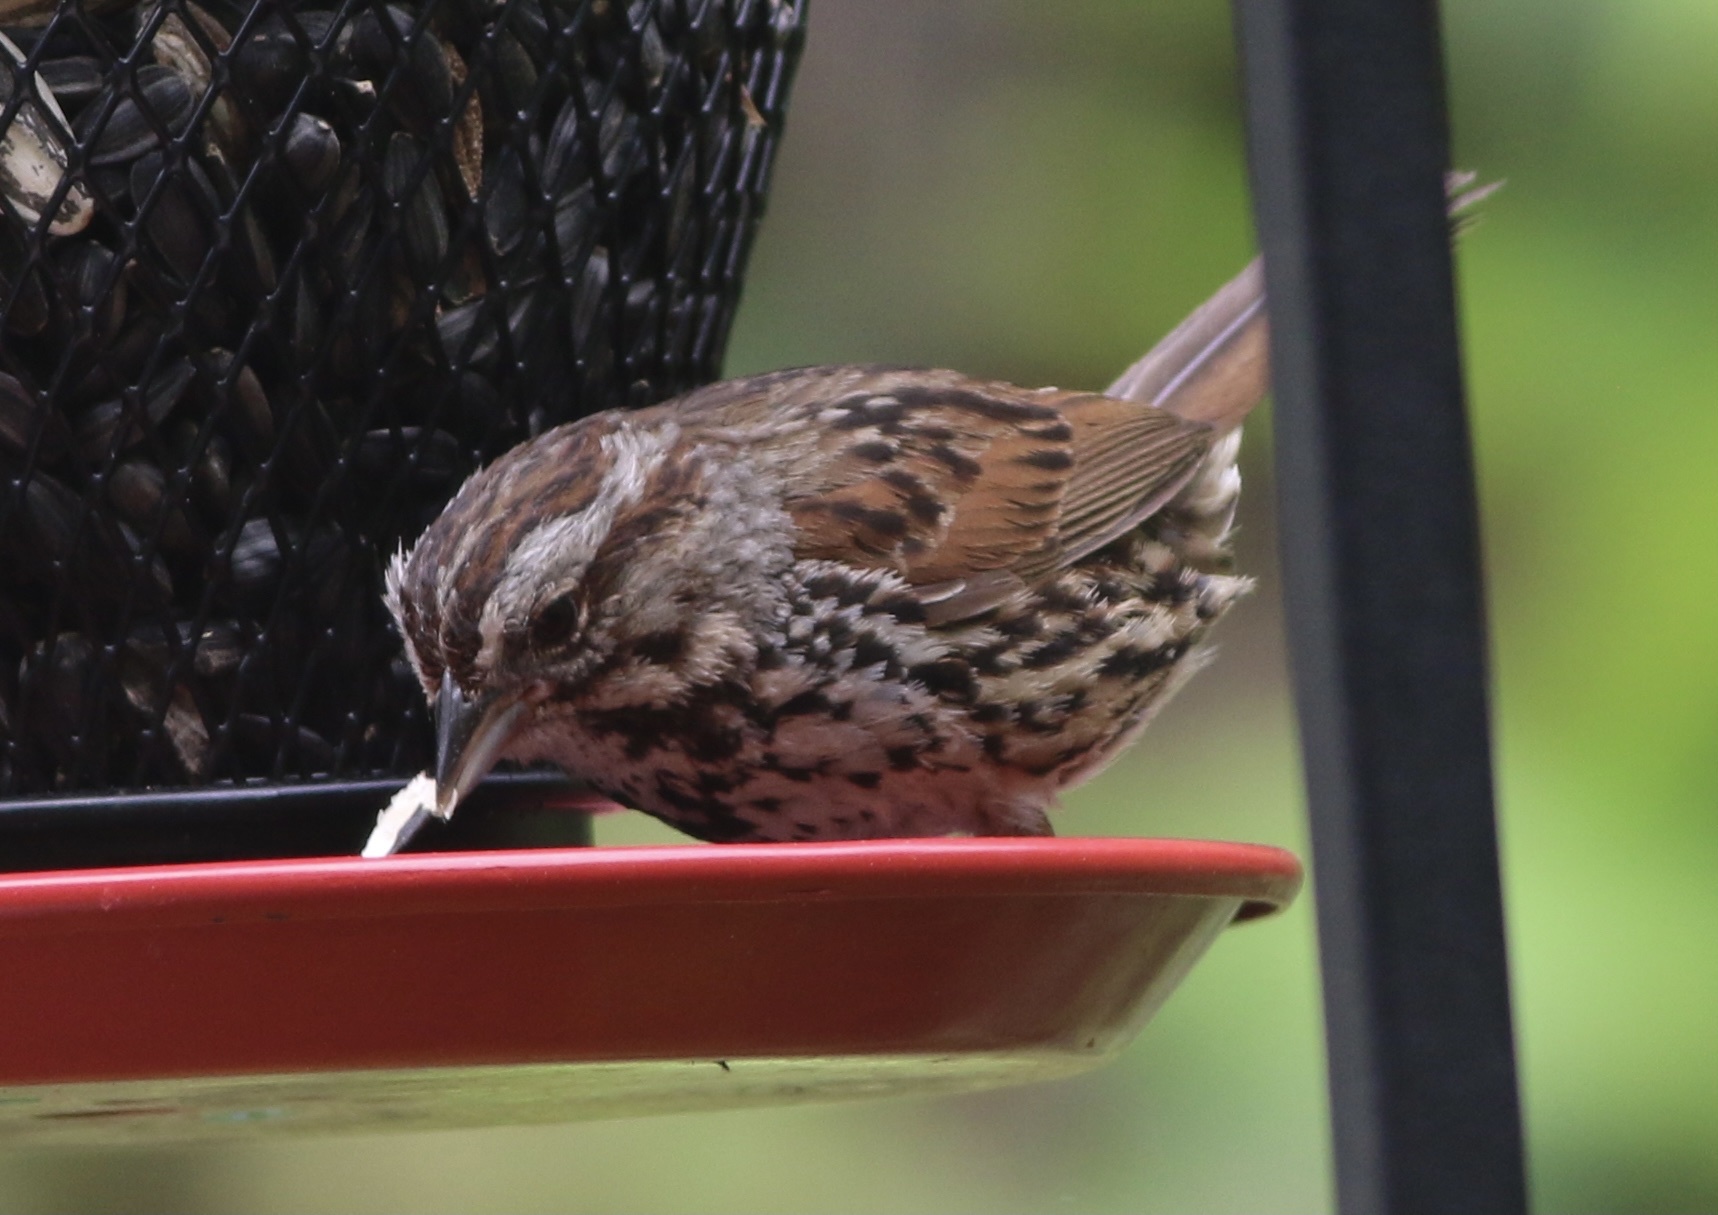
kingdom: Animalia
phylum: Chordata
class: Aves
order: Passeriformes
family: Passerellidae
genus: Melospiza
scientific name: Melospiza melodia
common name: Song sparrow
